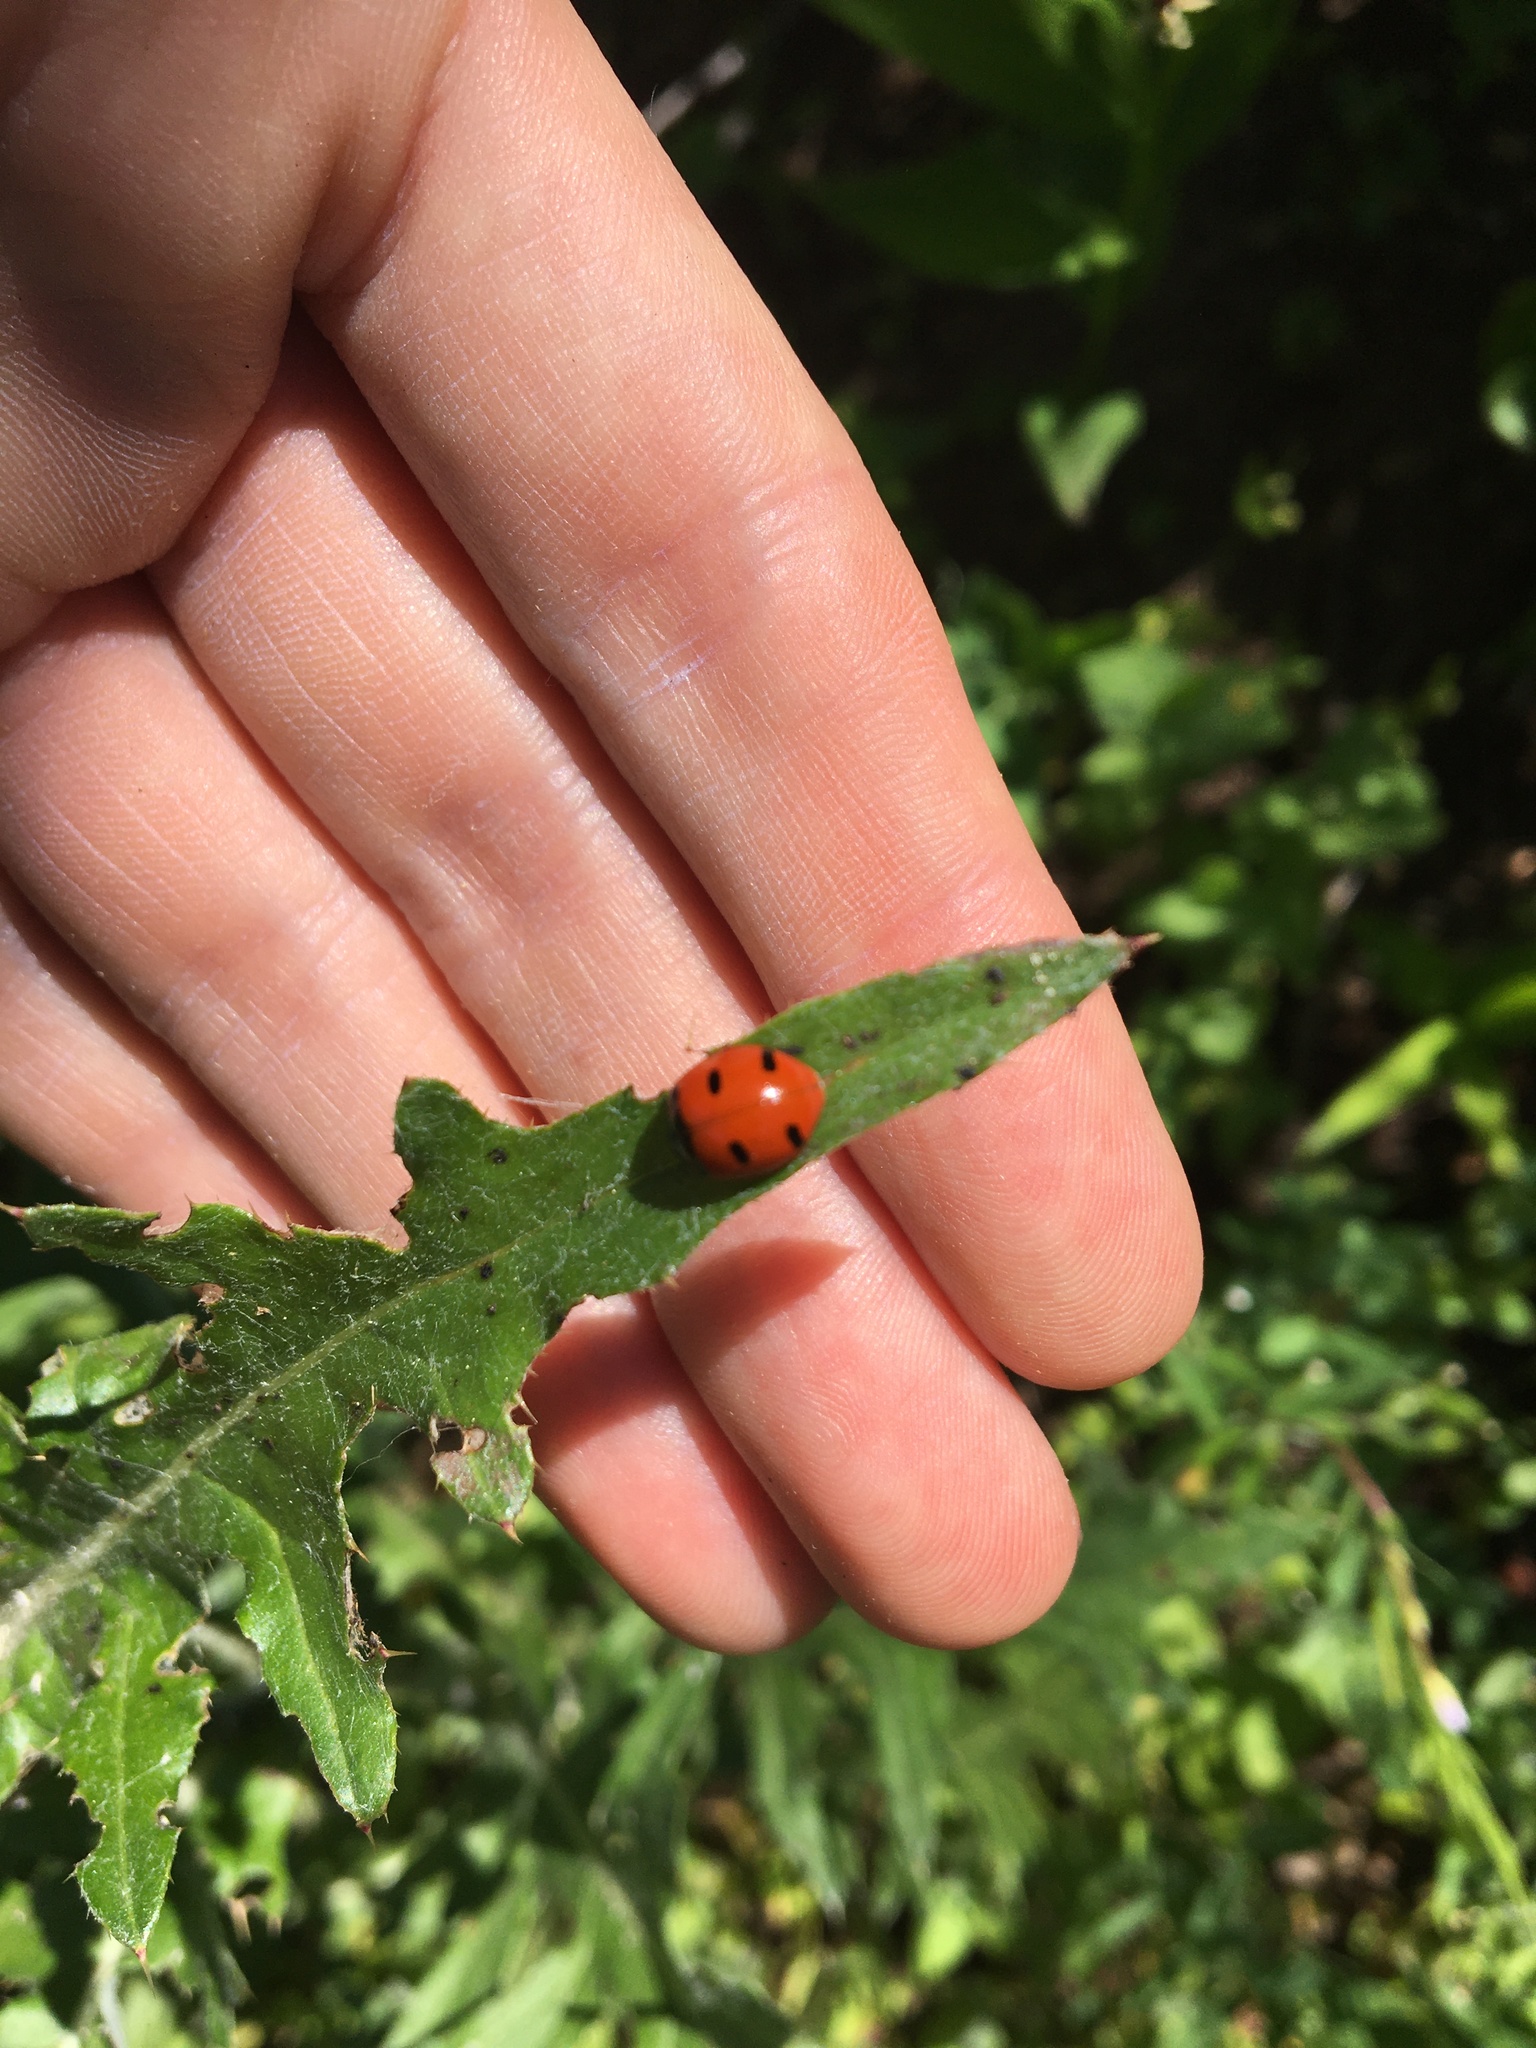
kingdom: Animalia
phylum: Arthropoda
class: Insecta
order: Coleoptera
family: Coccinellidae
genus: Coccinella
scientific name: Coccinella transversoguttata
